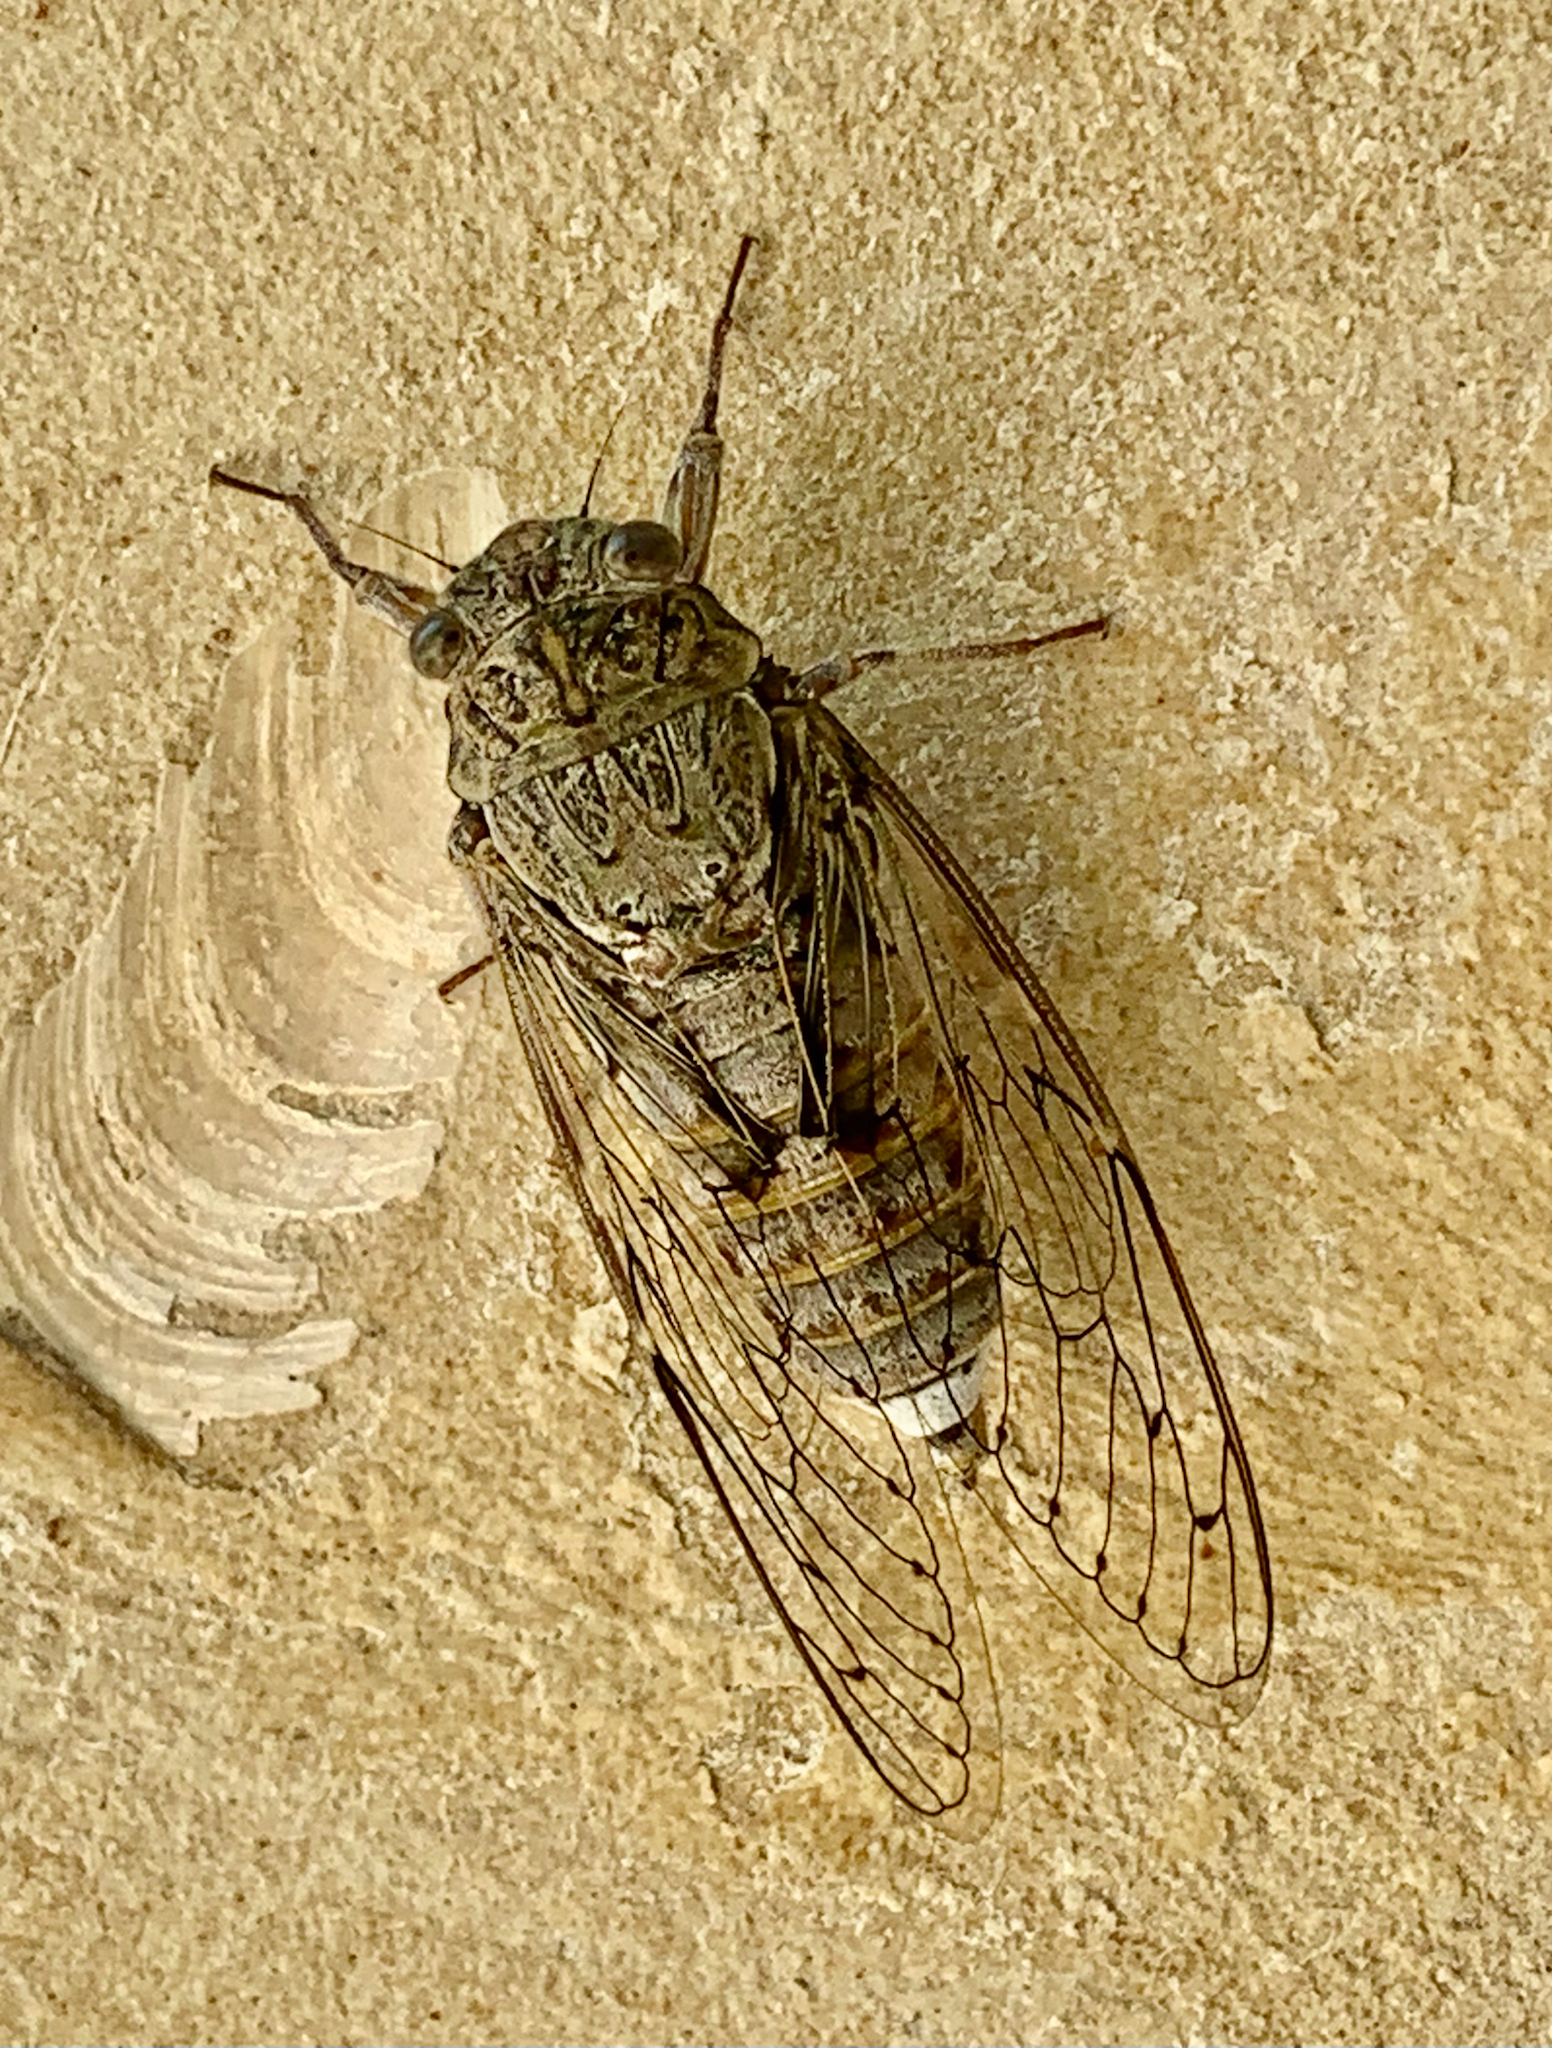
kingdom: Animalia
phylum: Arthropoda
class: Insecta
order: Hemiptera
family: Cicadidae
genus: Cicada
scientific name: Cicada cretensis
